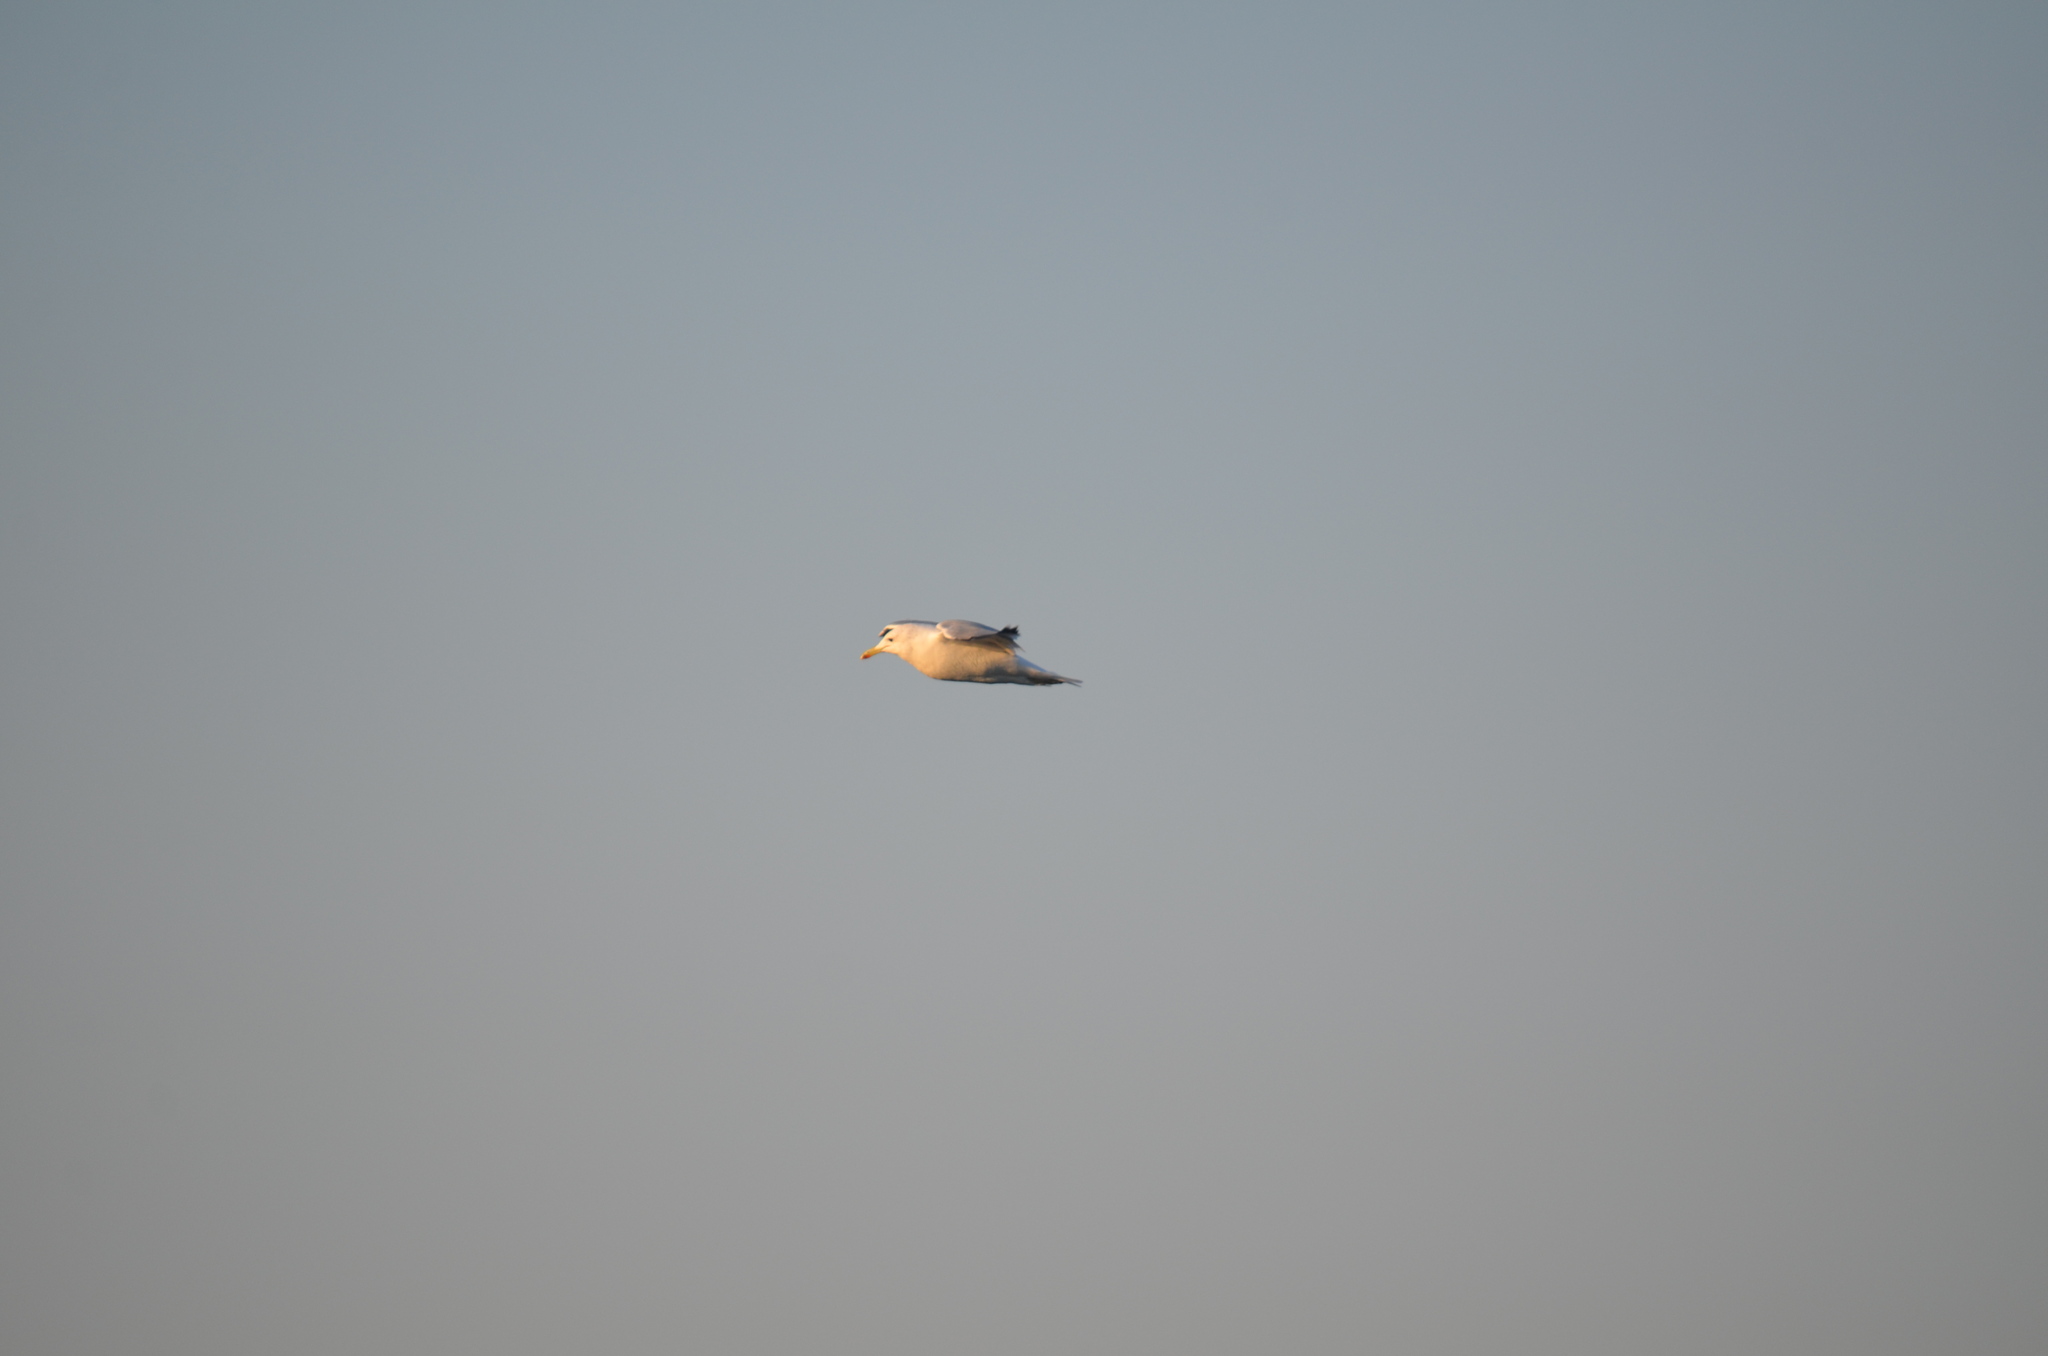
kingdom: Animalia
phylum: Chordata
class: Aves
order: Charadriiformes
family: Laridae
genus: Larus
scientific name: Larus californicus
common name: California gull
